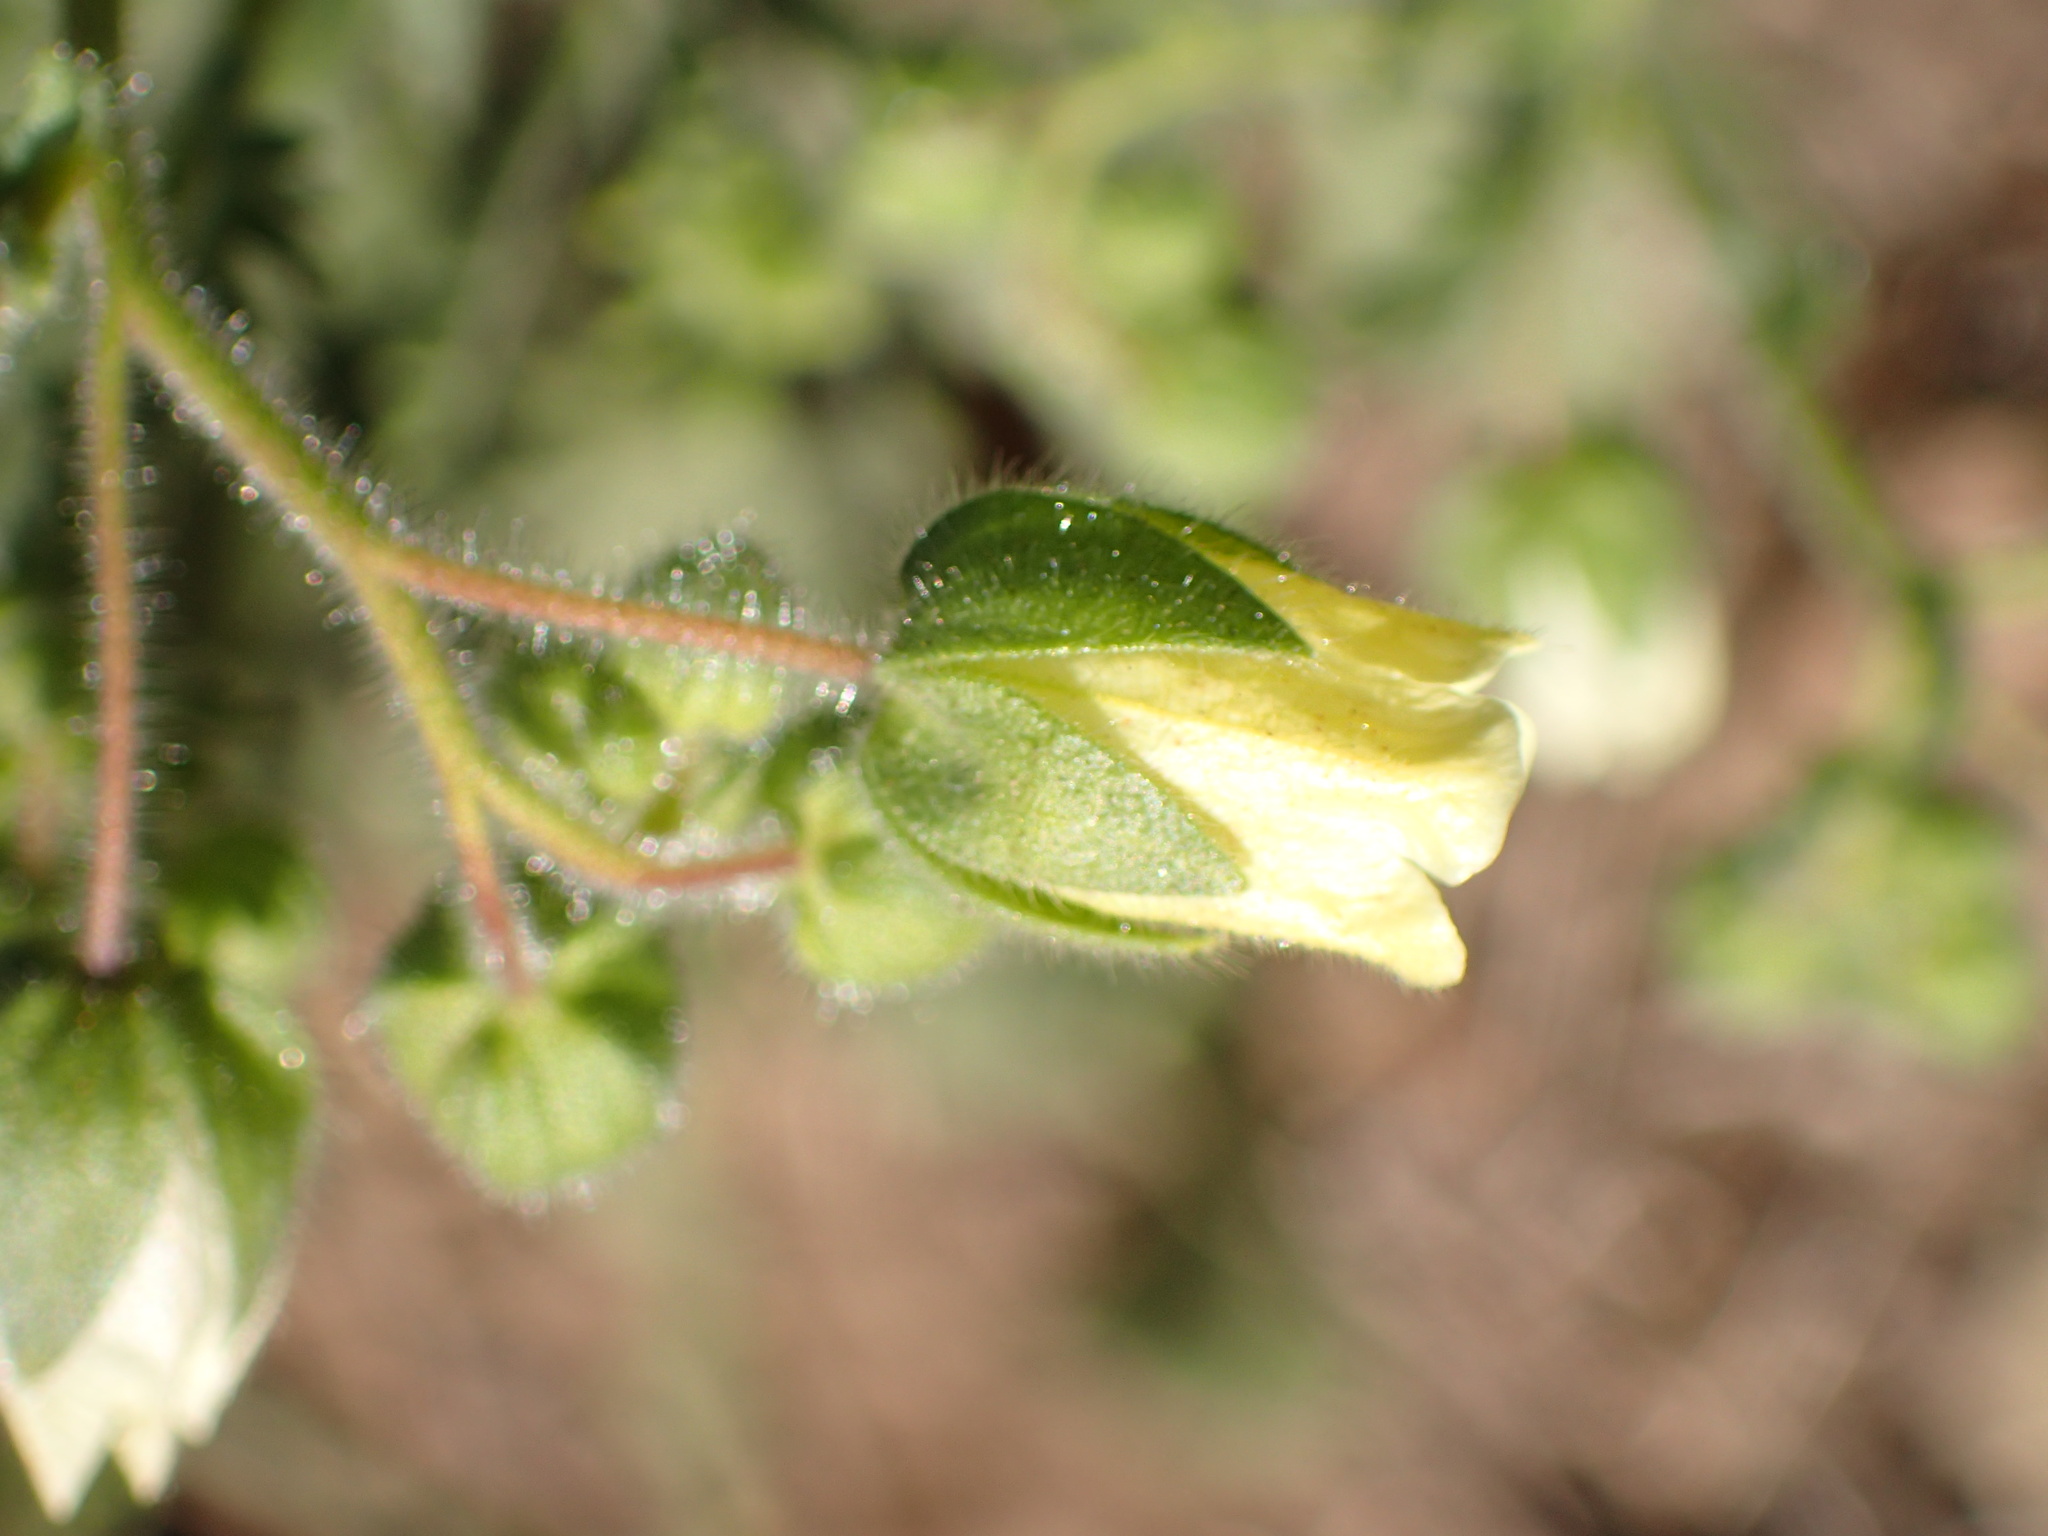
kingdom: Plantae
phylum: Tracheophyta
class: Magnoliopsida
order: Boraginales
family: Hydrophyllaceae
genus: Emmenanthe
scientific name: Emmenanthe penduliflora
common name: Whispering-bells
